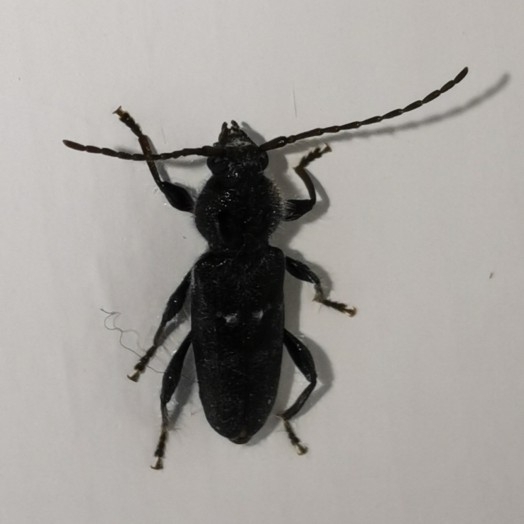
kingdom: Animalia
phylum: Arthropoda
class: Insecta
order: Coleoptera
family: Cerambycidae
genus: Hylotrupes
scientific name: Hylotrupes bajulus
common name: Old house borer
